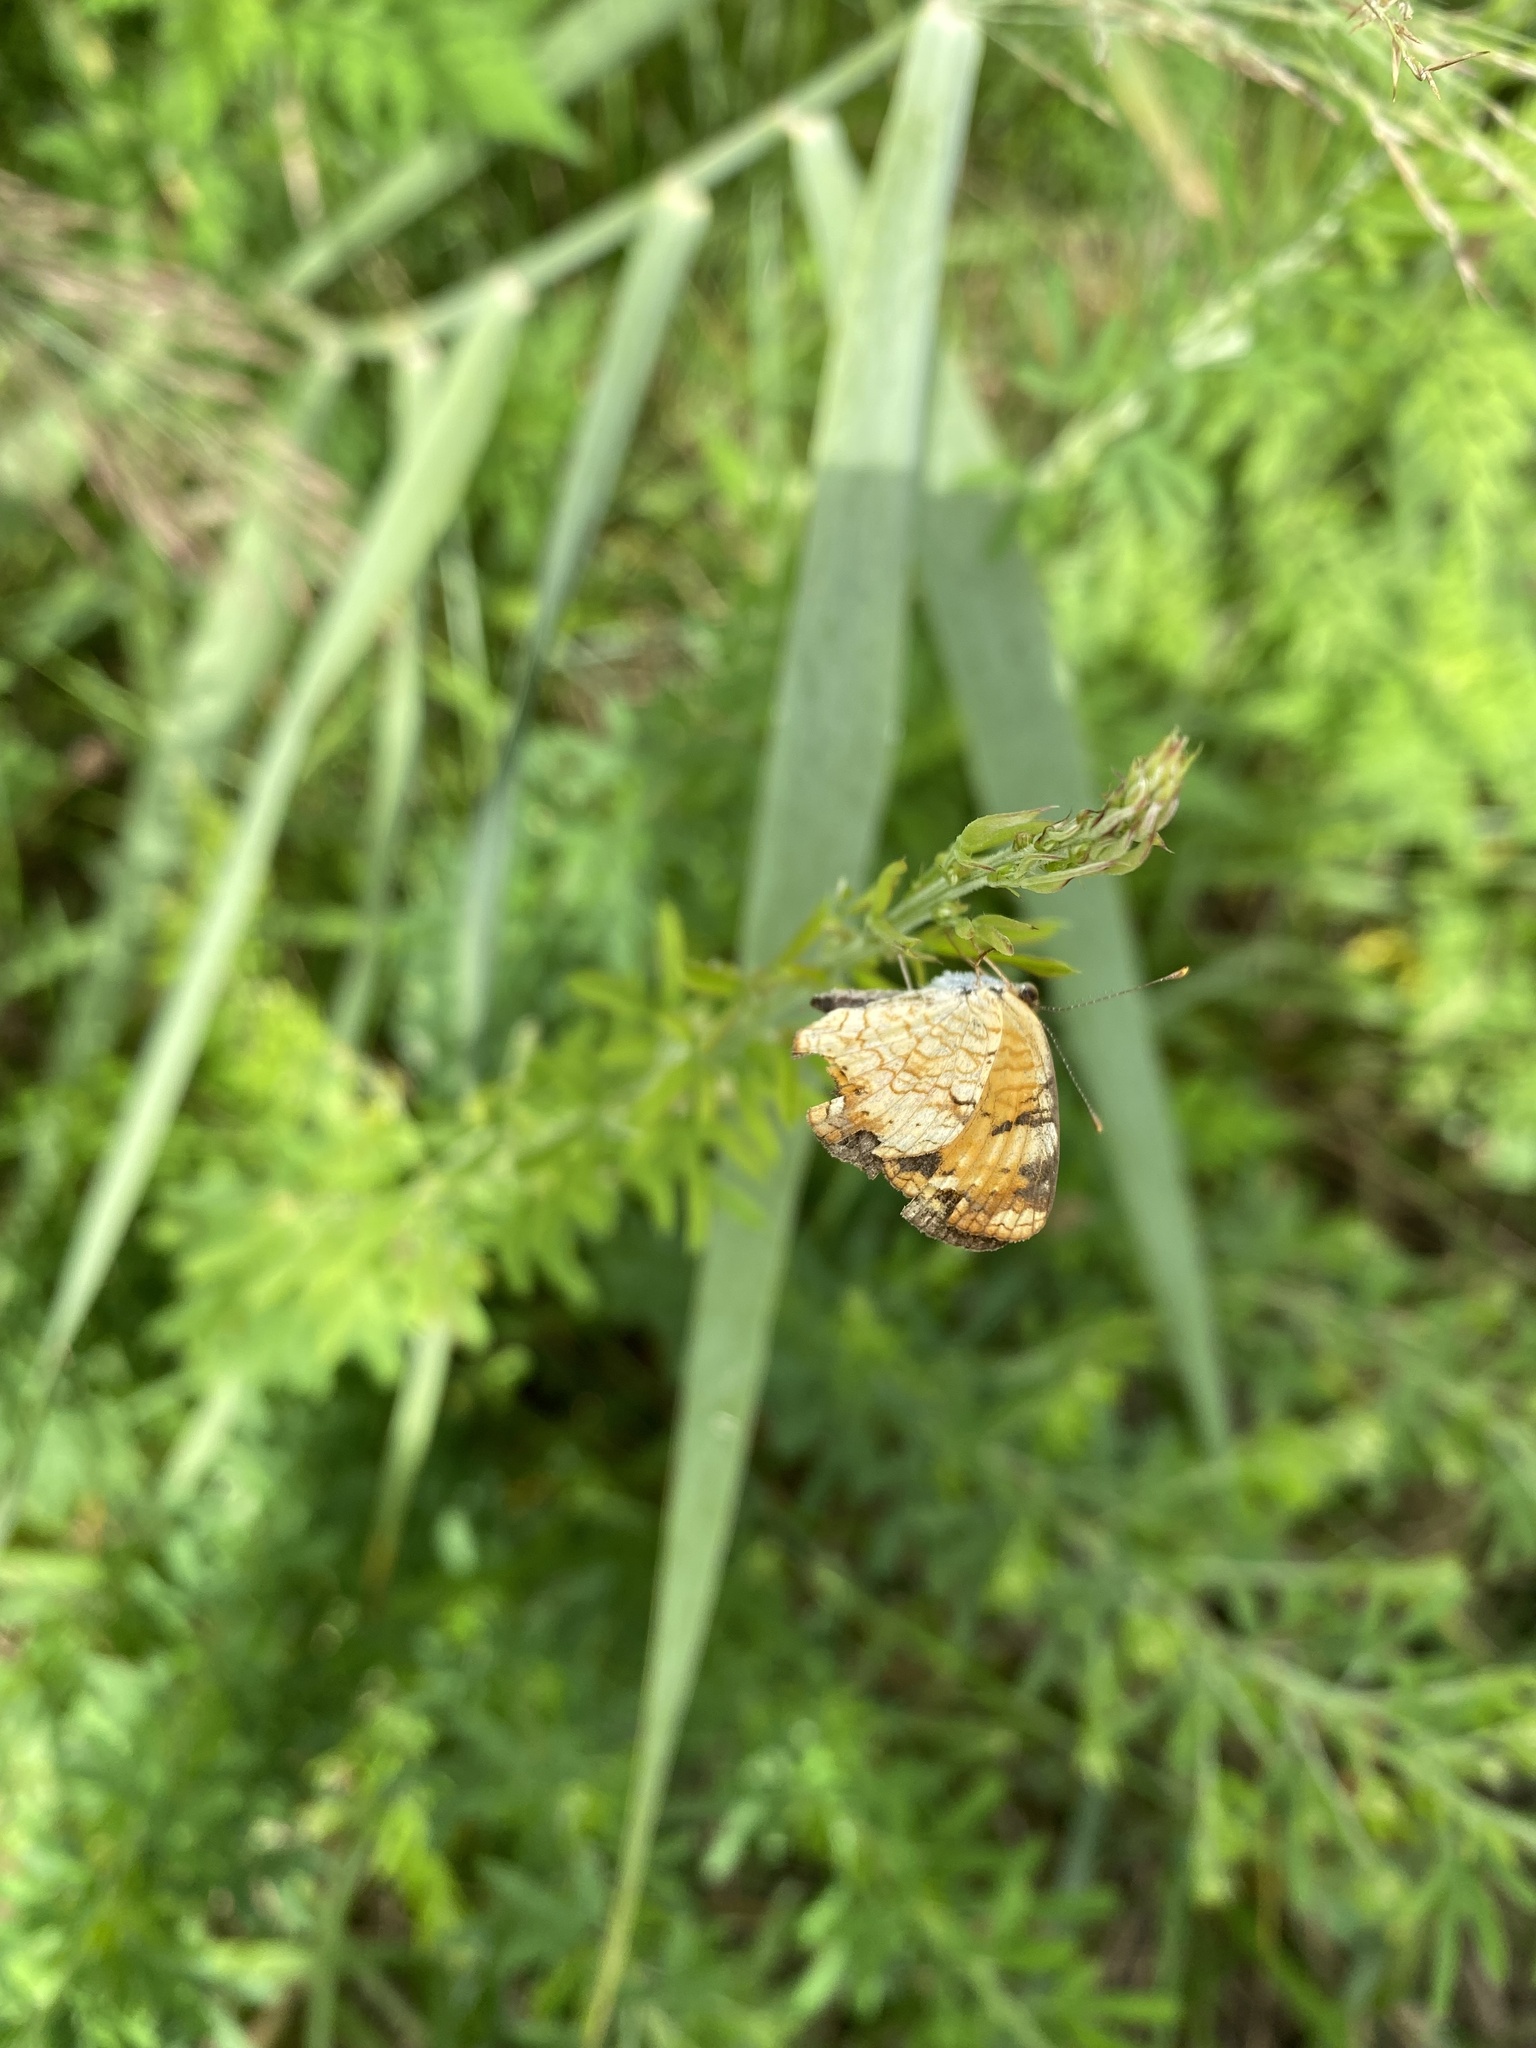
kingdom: Animalia
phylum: Arthropoda
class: Insecta
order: Lepidoptera
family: Nymphalidae
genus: Phyciodes
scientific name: Phyciodes tharos
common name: Pearl crescent
